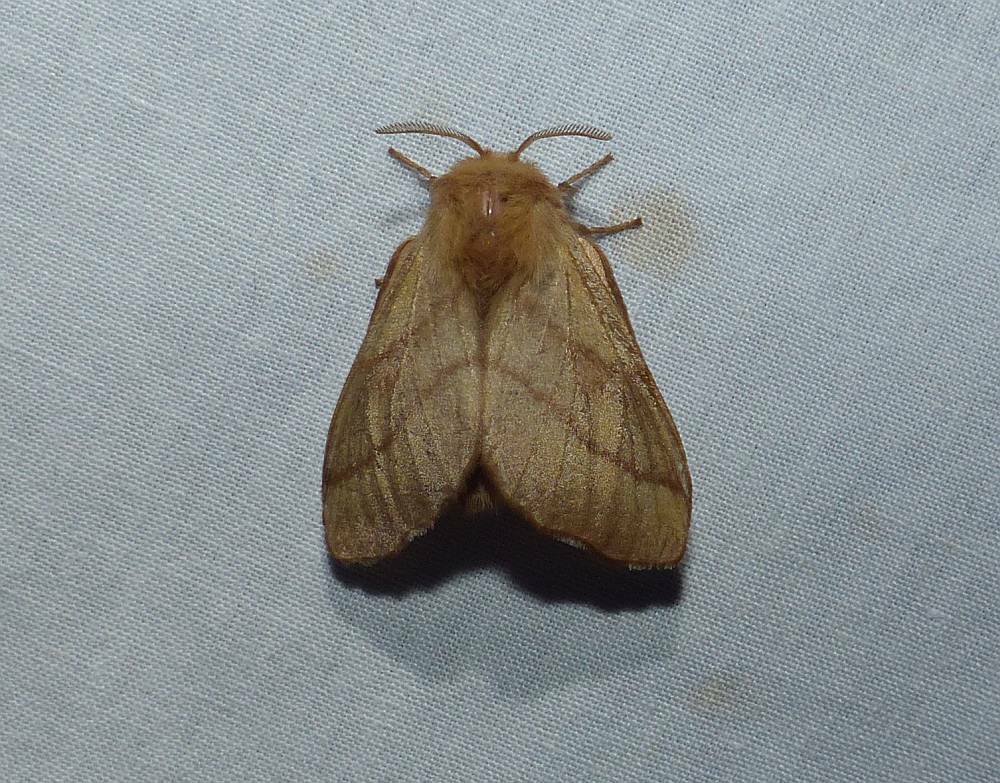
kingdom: Animalia
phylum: Arthropoda
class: Insecta
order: Lepidoptera
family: Lasiocampidae
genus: Malacosoma
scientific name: Malacosoma disstria
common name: Forest tent caterpillar
